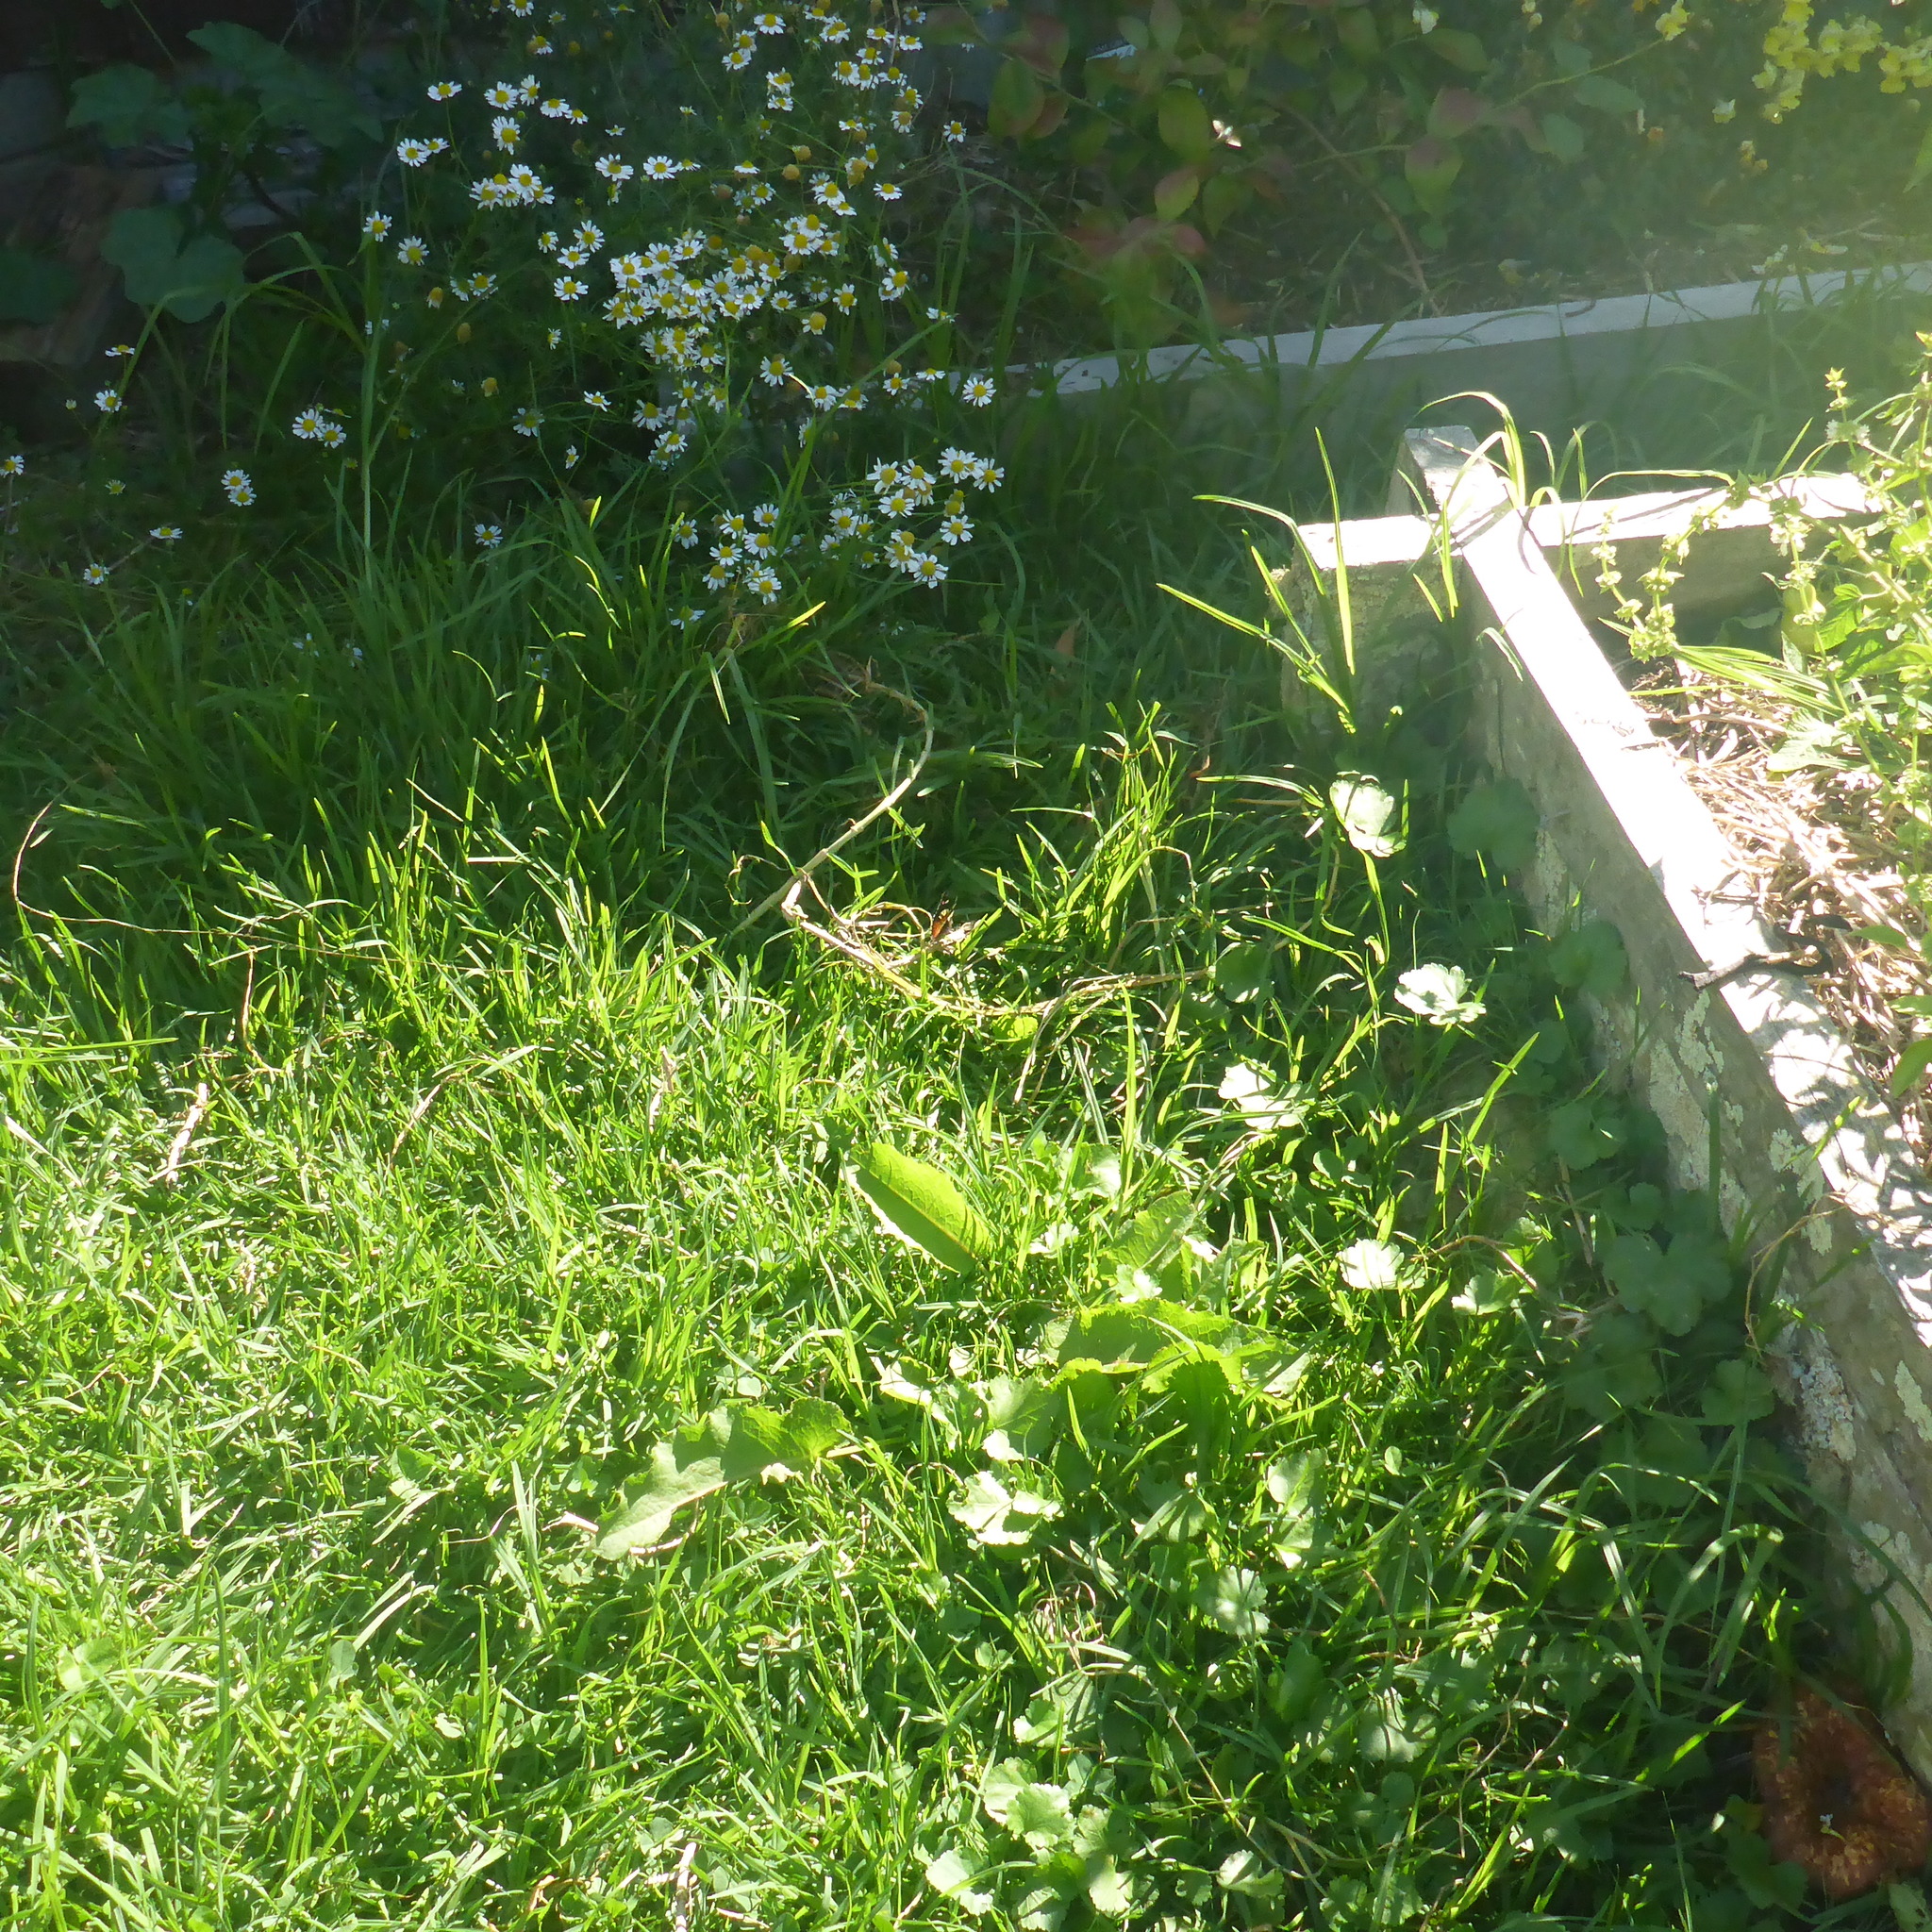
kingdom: Animalia
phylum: Arthropoda
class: Insecta
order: Lepidoptera
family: Nymphalidae
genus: Vanessa
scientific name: Vanessa itea
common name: Yellow admiral
